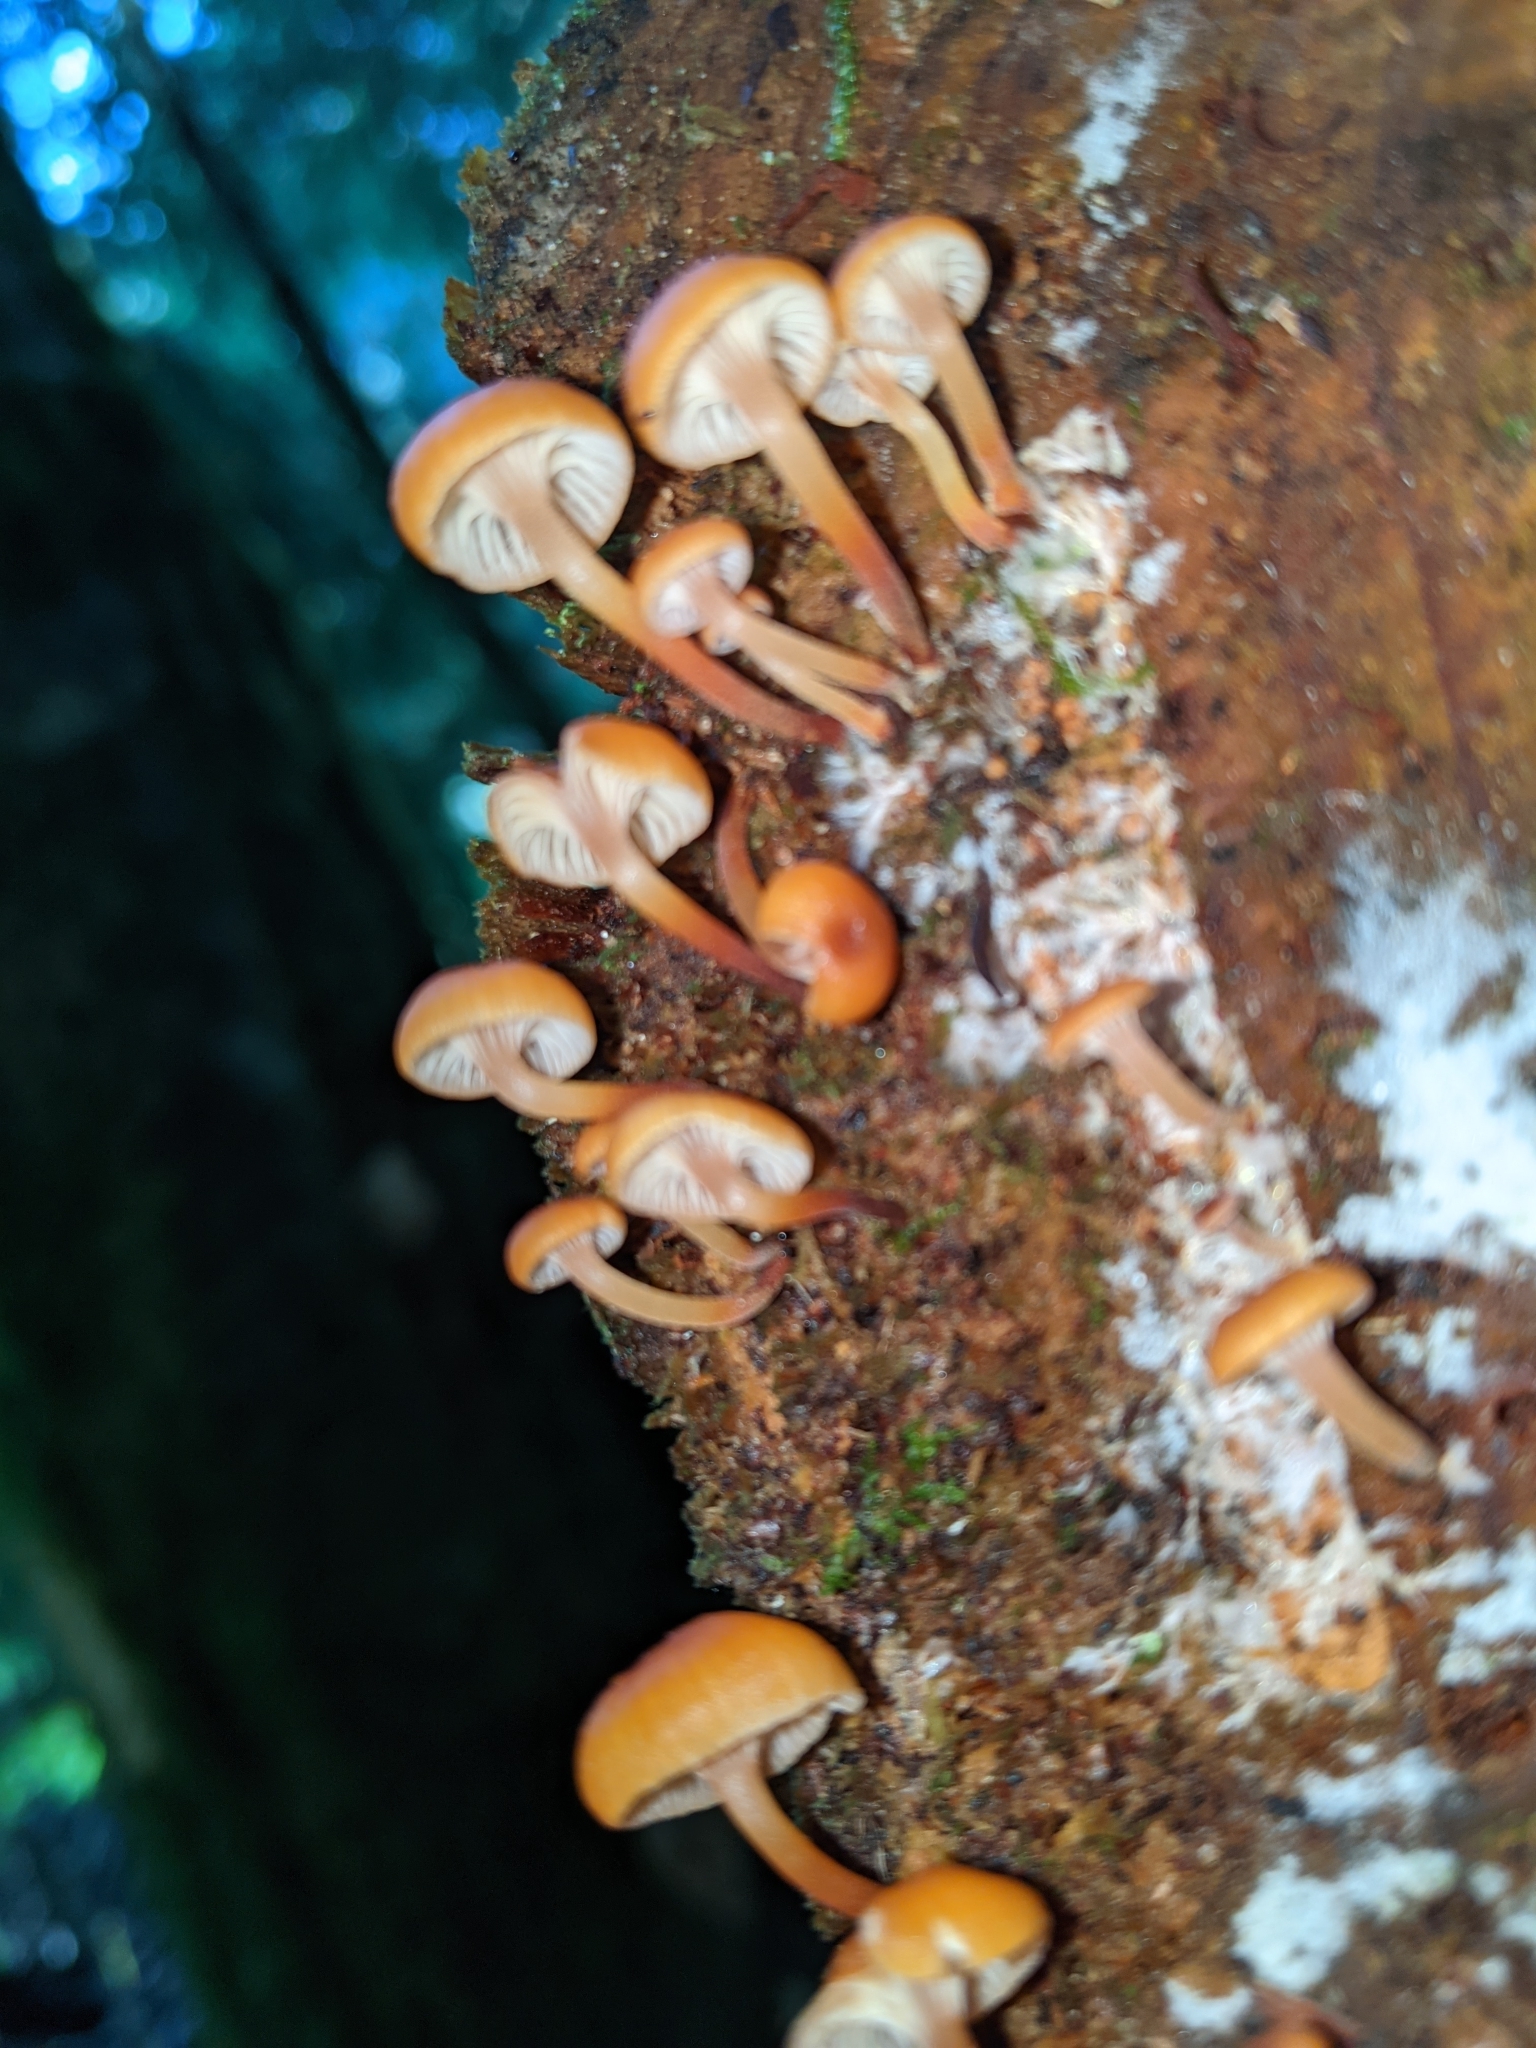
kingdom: Fungi
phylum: Basidiomycota
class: Agaricomycetes
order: Agaricales
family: Mycenaceae
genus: Xeromphalina
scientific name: Xeromphalina campanella
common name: Pinewood gingertail
